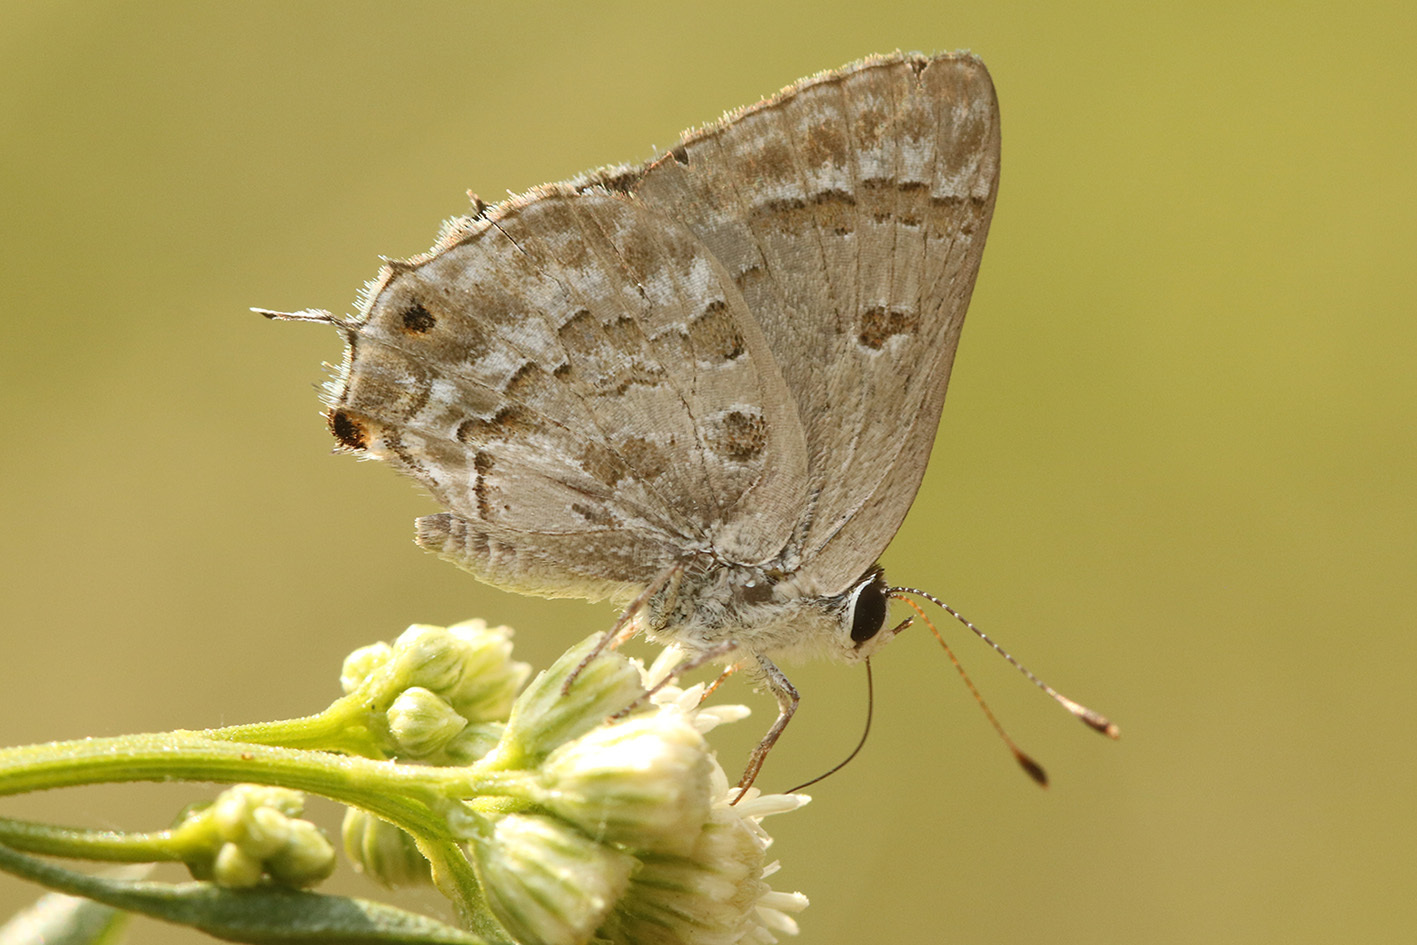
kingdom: Animalia
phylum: Arthropoda
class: Insecta
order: Lepidoptera
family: Lycaenidae
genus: Strymon
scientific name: Strymon lucena
